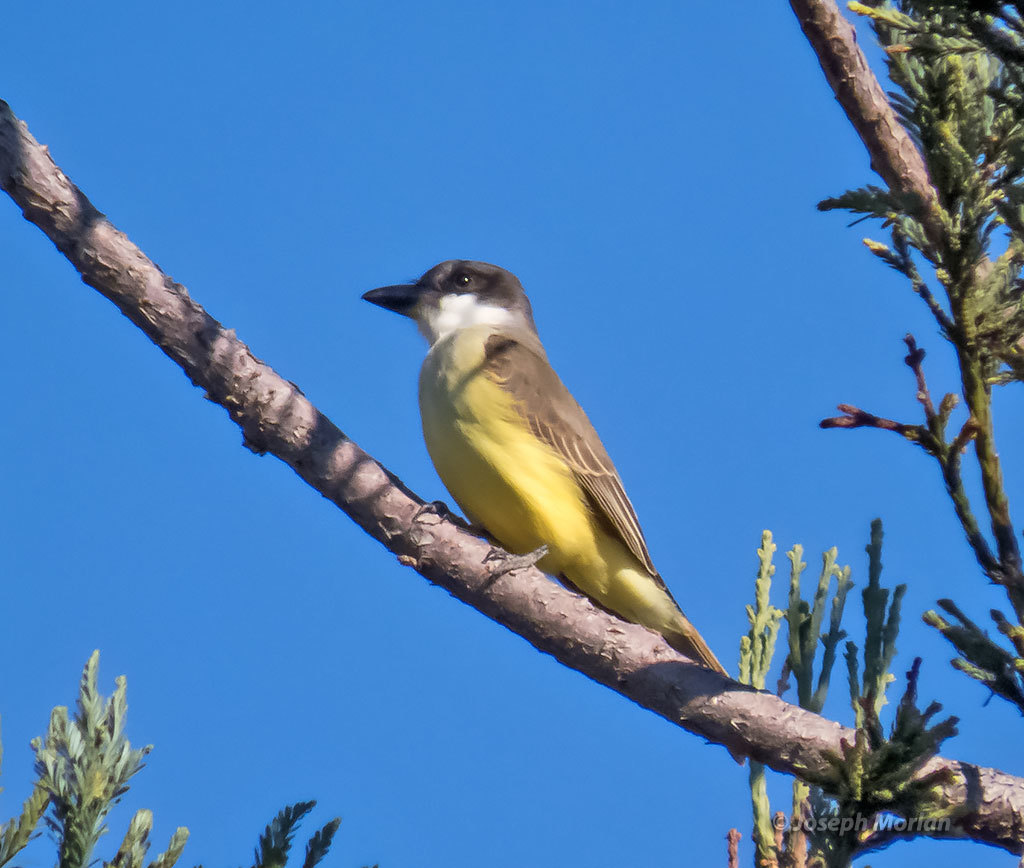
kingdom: Animalia
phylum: Chordata
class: Aves
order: Passeriformes
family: Tyrannidae
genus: Tyrannus
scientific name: Tyrannus crassirostris
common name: Thick-billed kingbird
